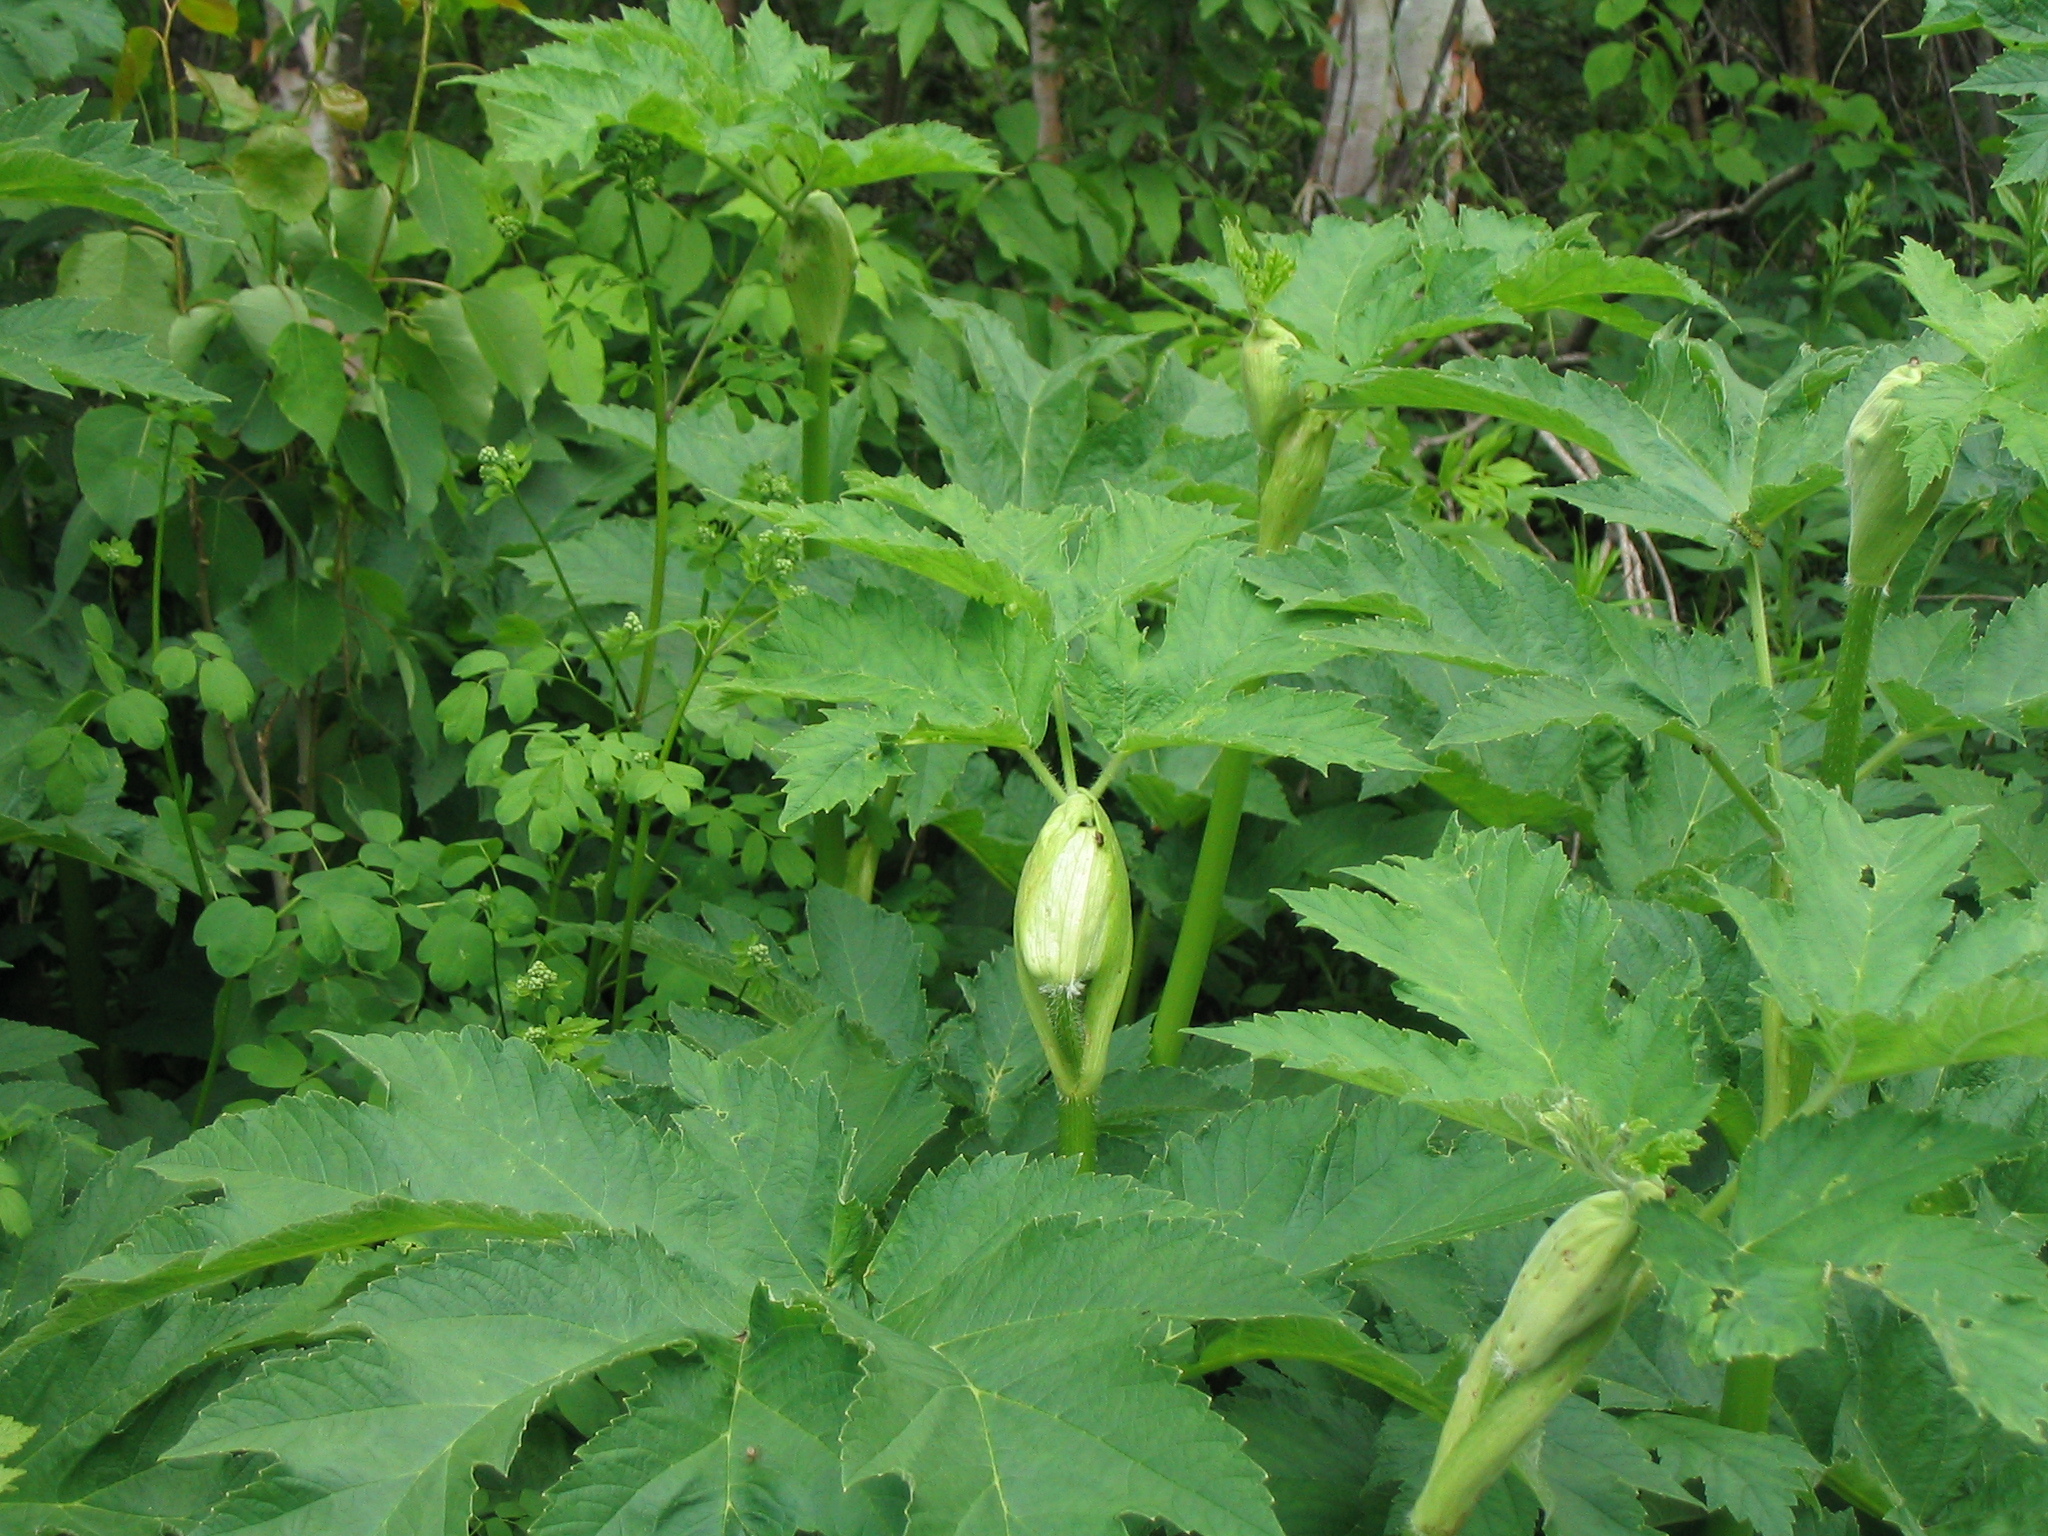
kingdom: Plantae
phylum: Tracheophyta
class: Magnoliopsida
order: Apiales
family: Apiaceae
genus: Heracleum
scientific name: Heracleum maximum
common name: American cow parsnip
